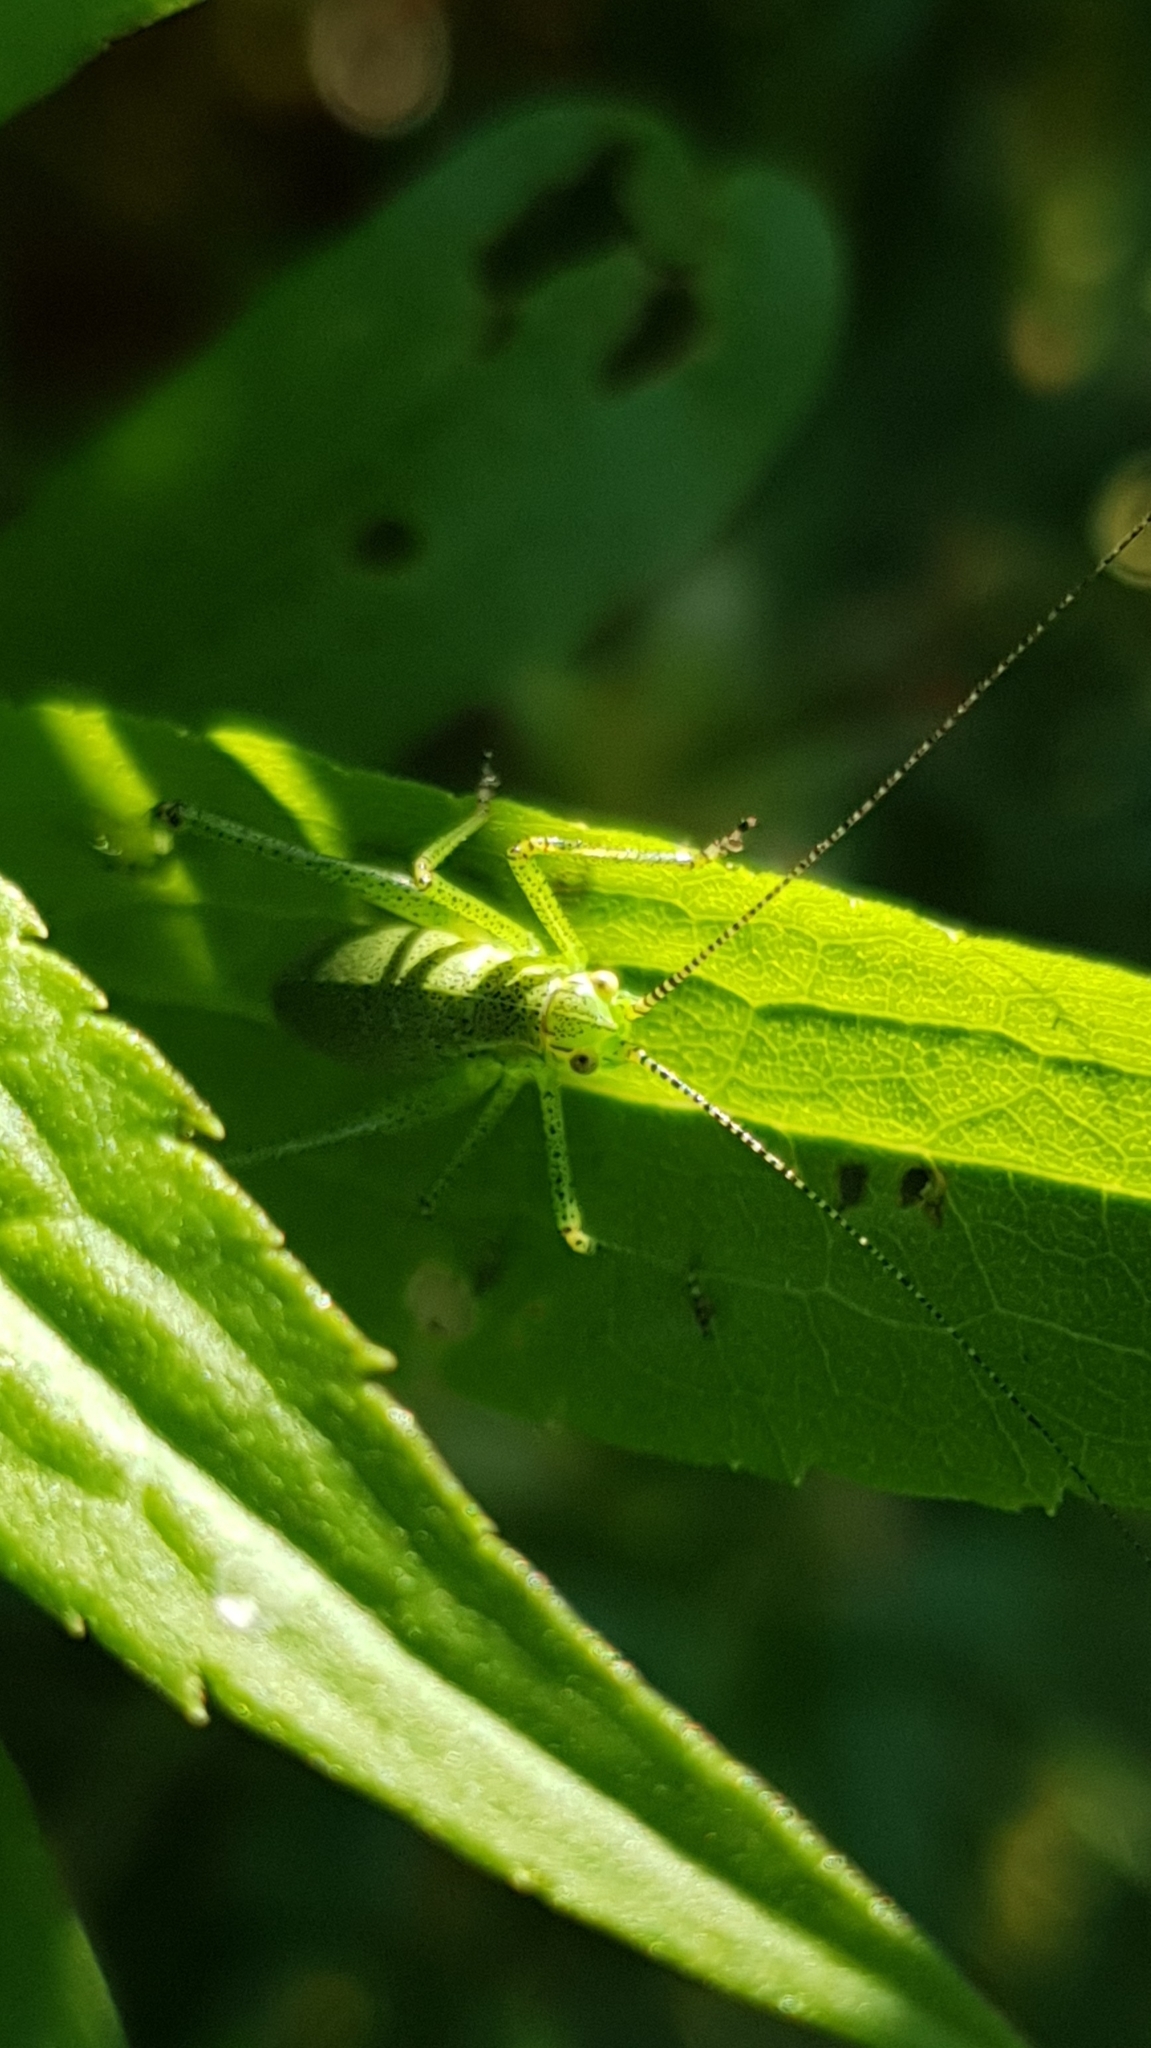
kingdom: Animalia
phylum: Arthropoda
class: Insecta
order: Orthoptera
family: Tettigoniidae
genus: Leptophyes
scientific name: Leptophyes punctatissima
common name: Speckled bush-cricket
